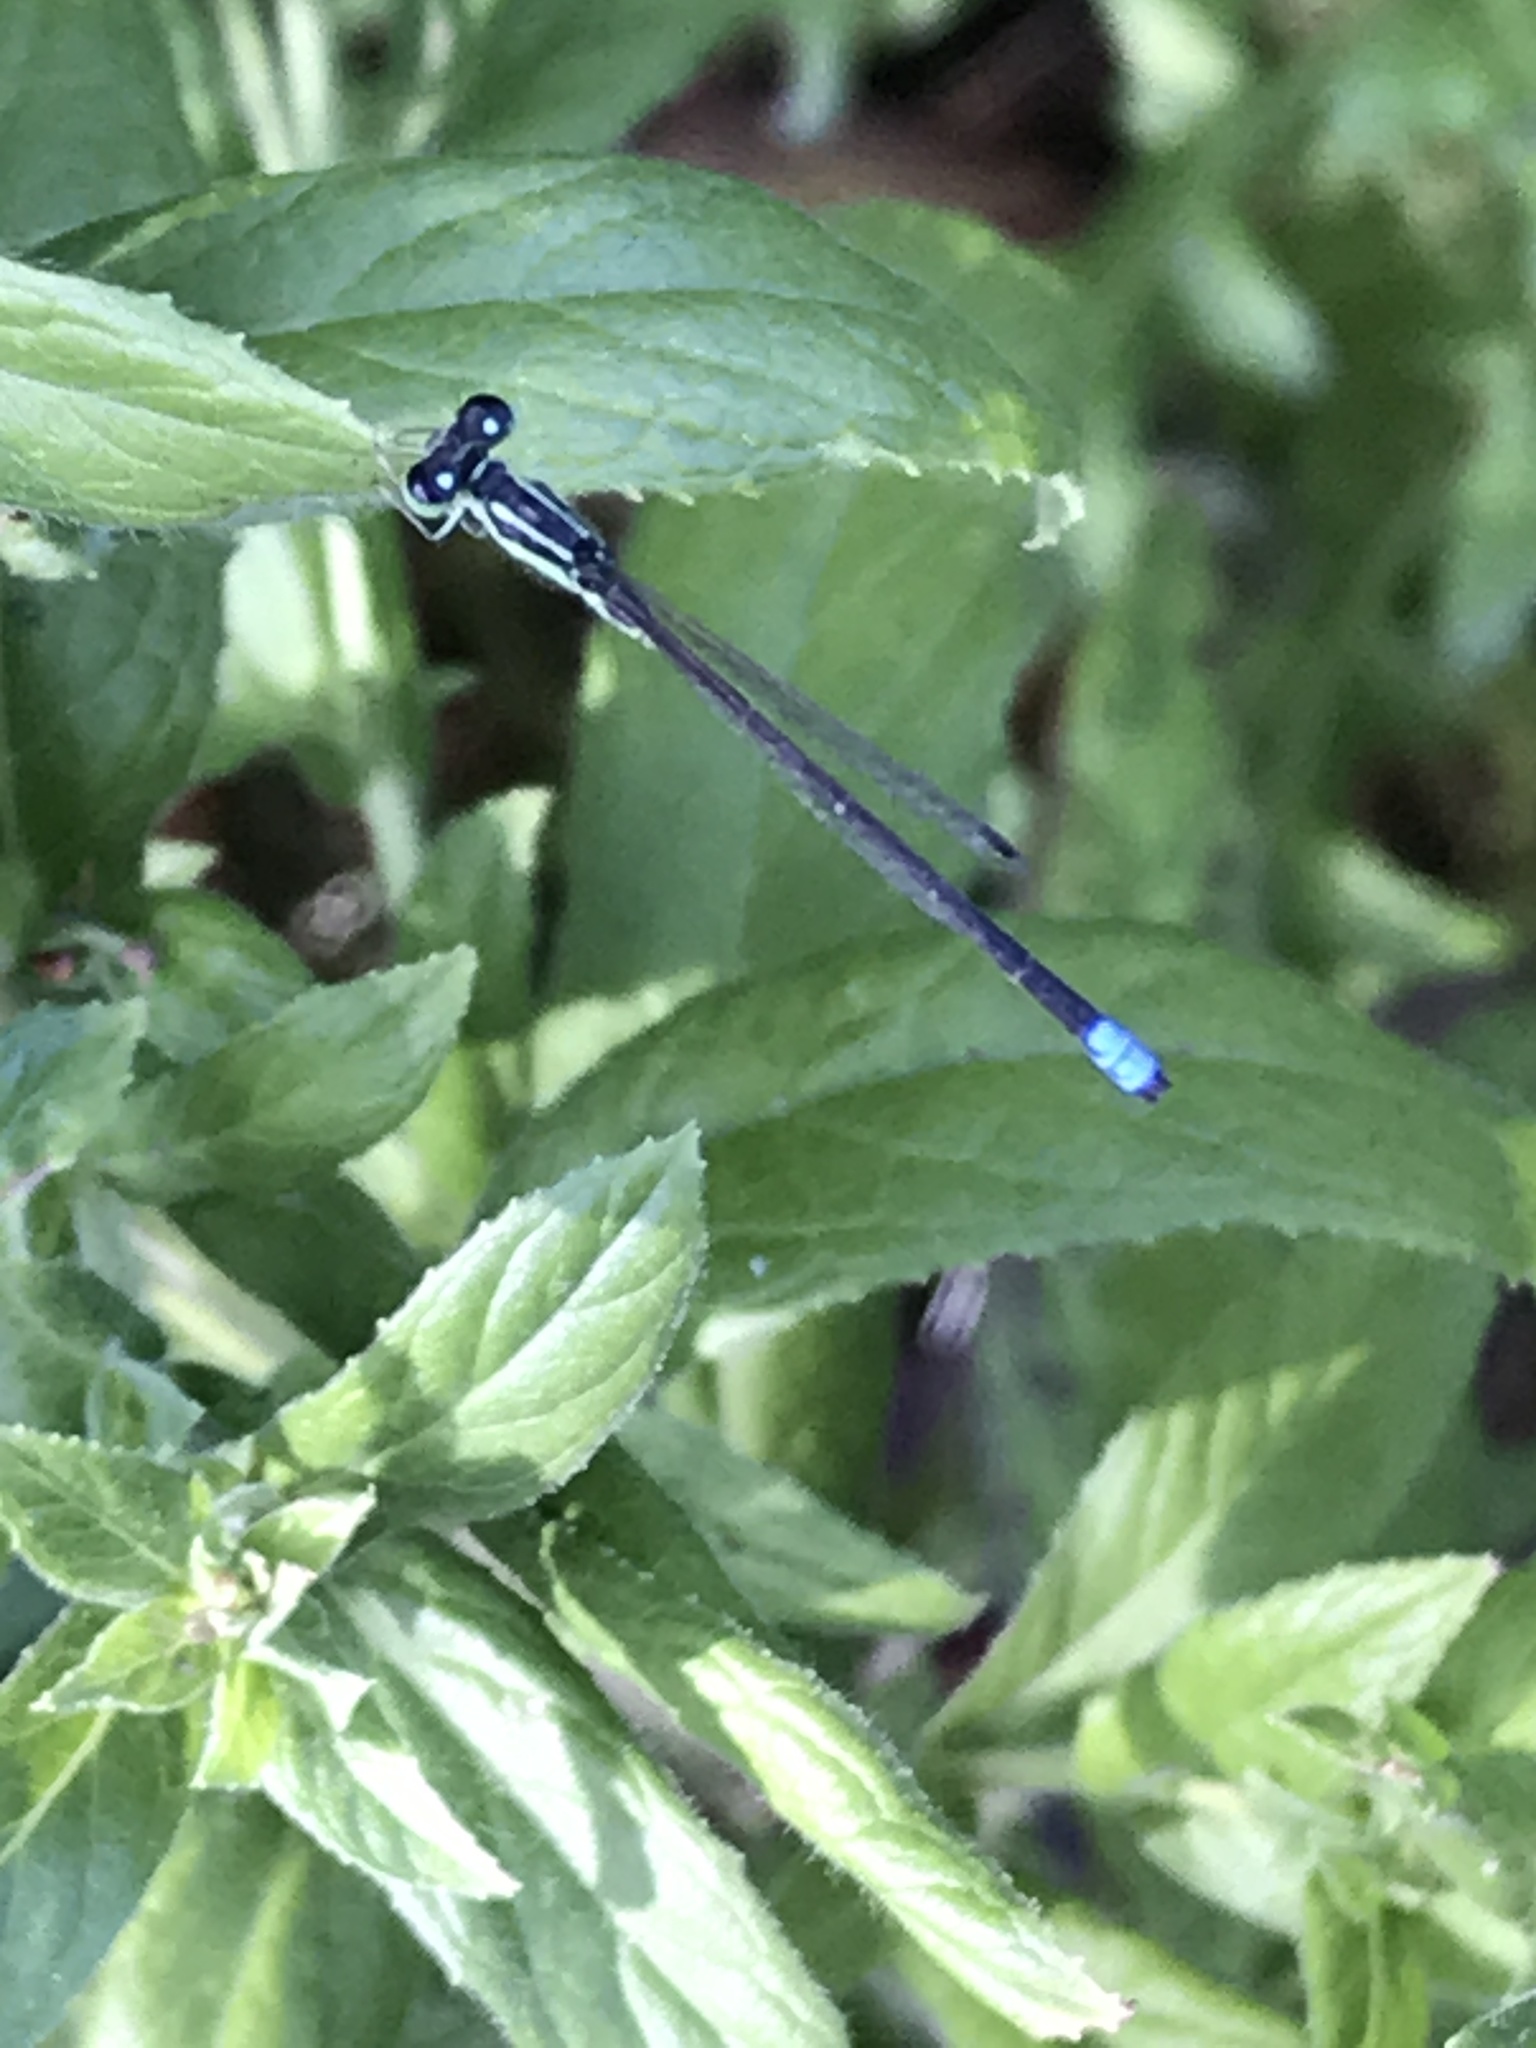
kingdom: Animalia
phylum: Arthropoda
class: Insecta
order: Odonata
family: Coenagrionidae
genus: Ischnura
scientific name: Ischnura verticalis
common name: Eastern forktail
